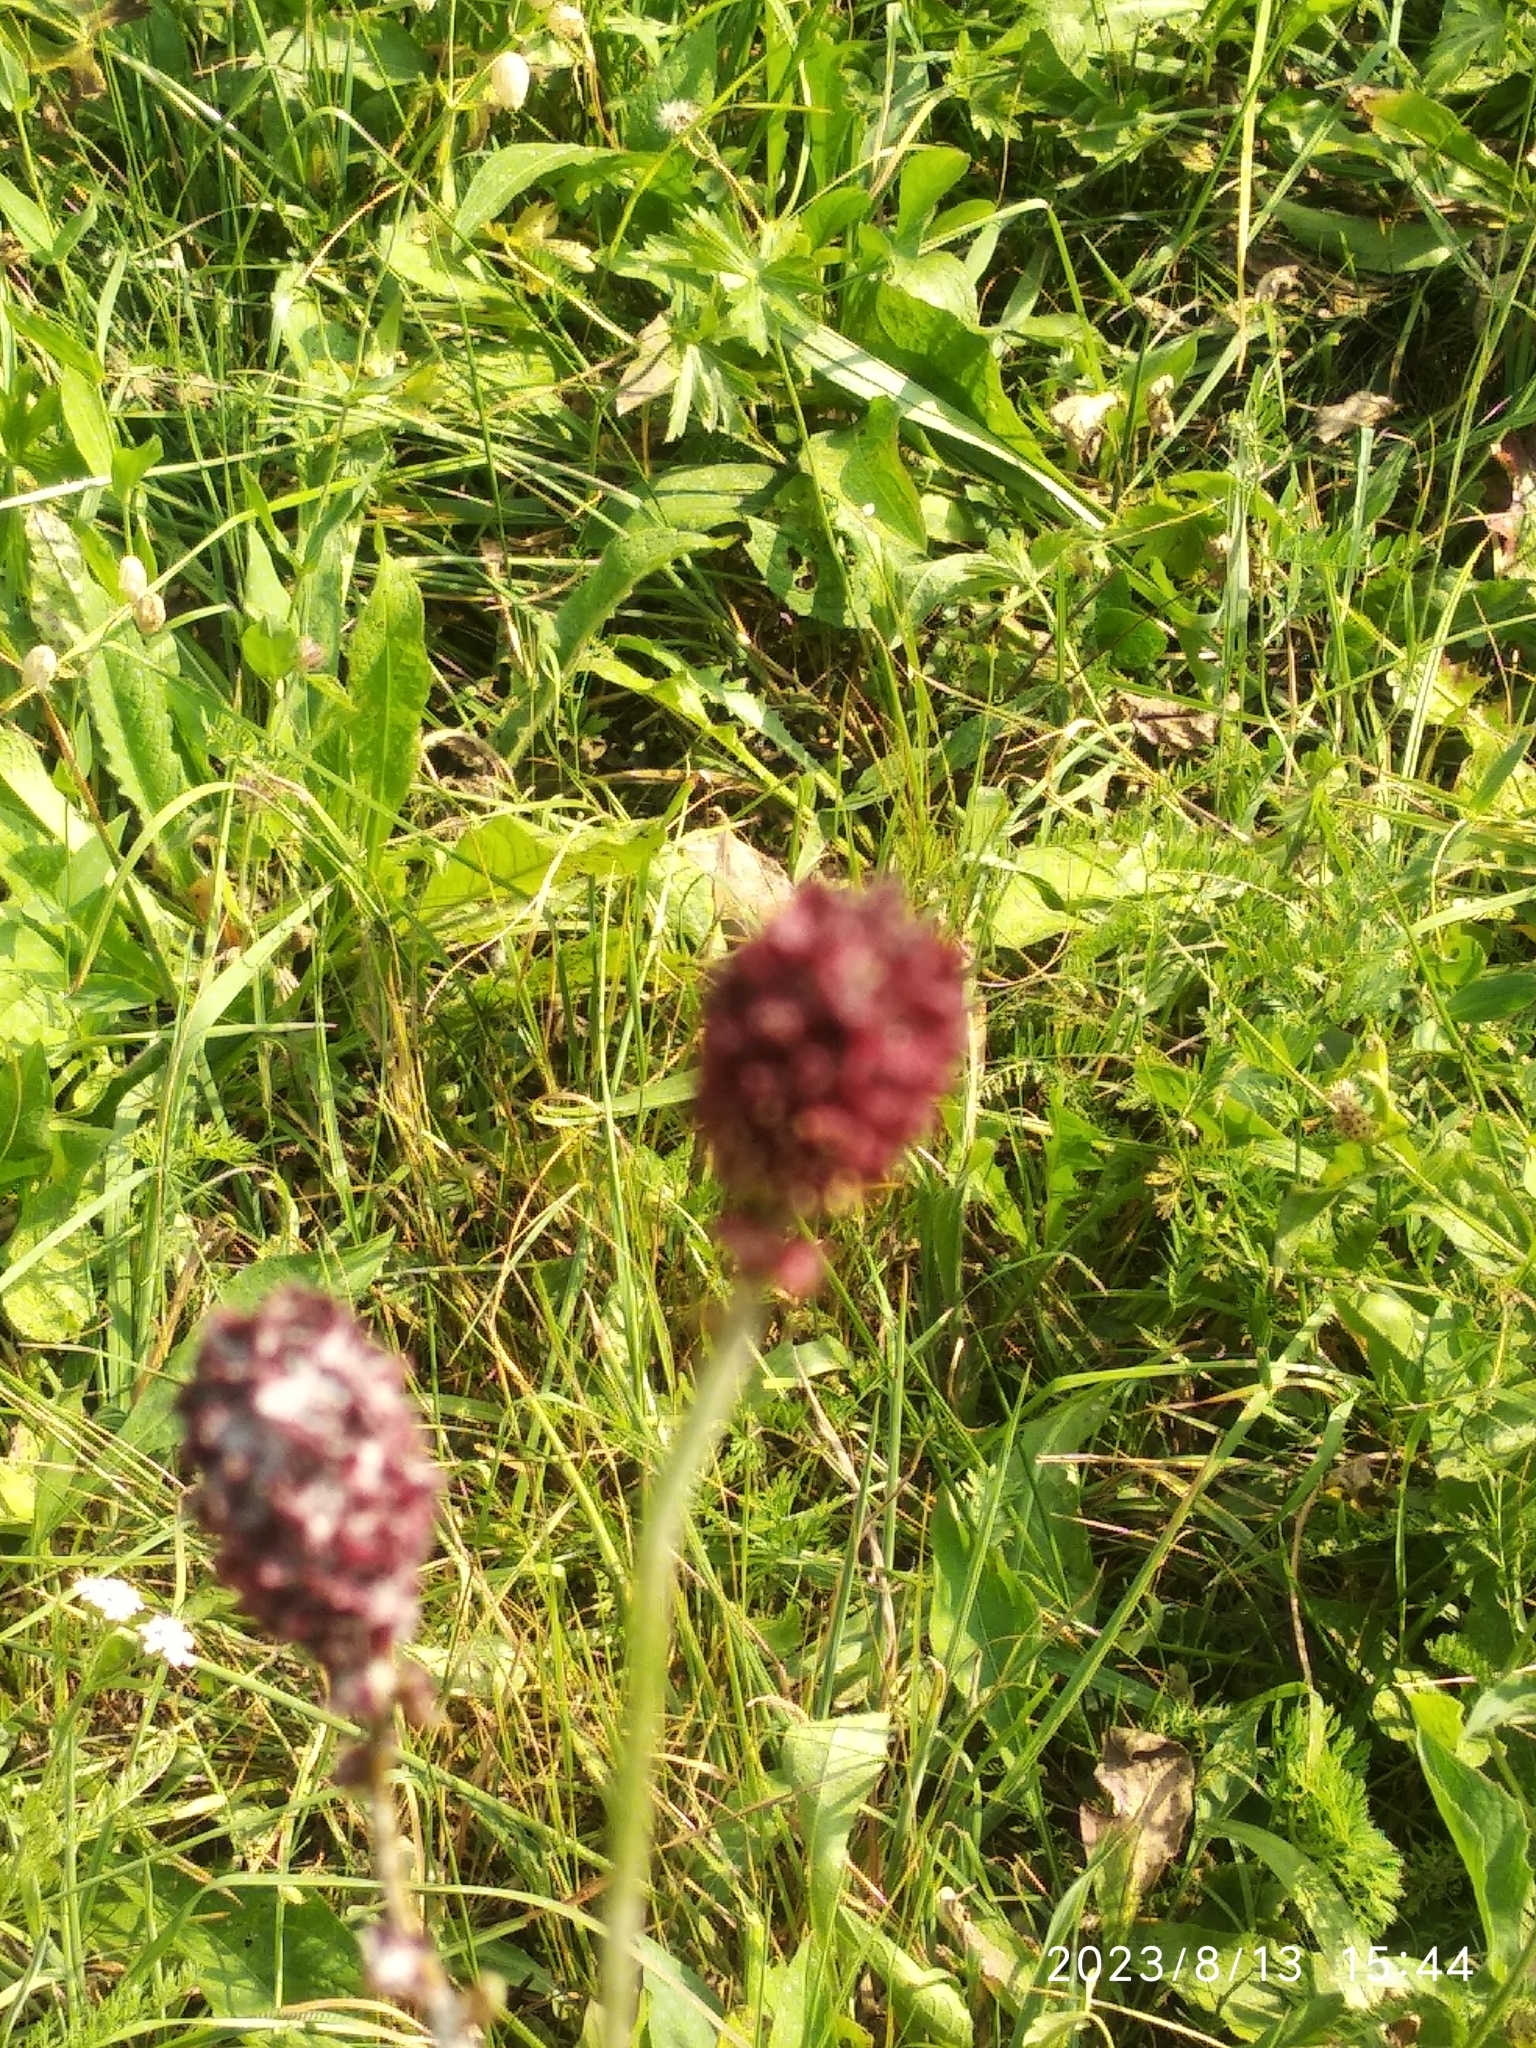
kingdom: Plantae
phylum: Tracheophyta
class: Magnoliopsida
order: Rosales
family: Rosaceae
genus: Sanguisorba
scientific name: Sanguisorba officinalis
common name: Great burnet
